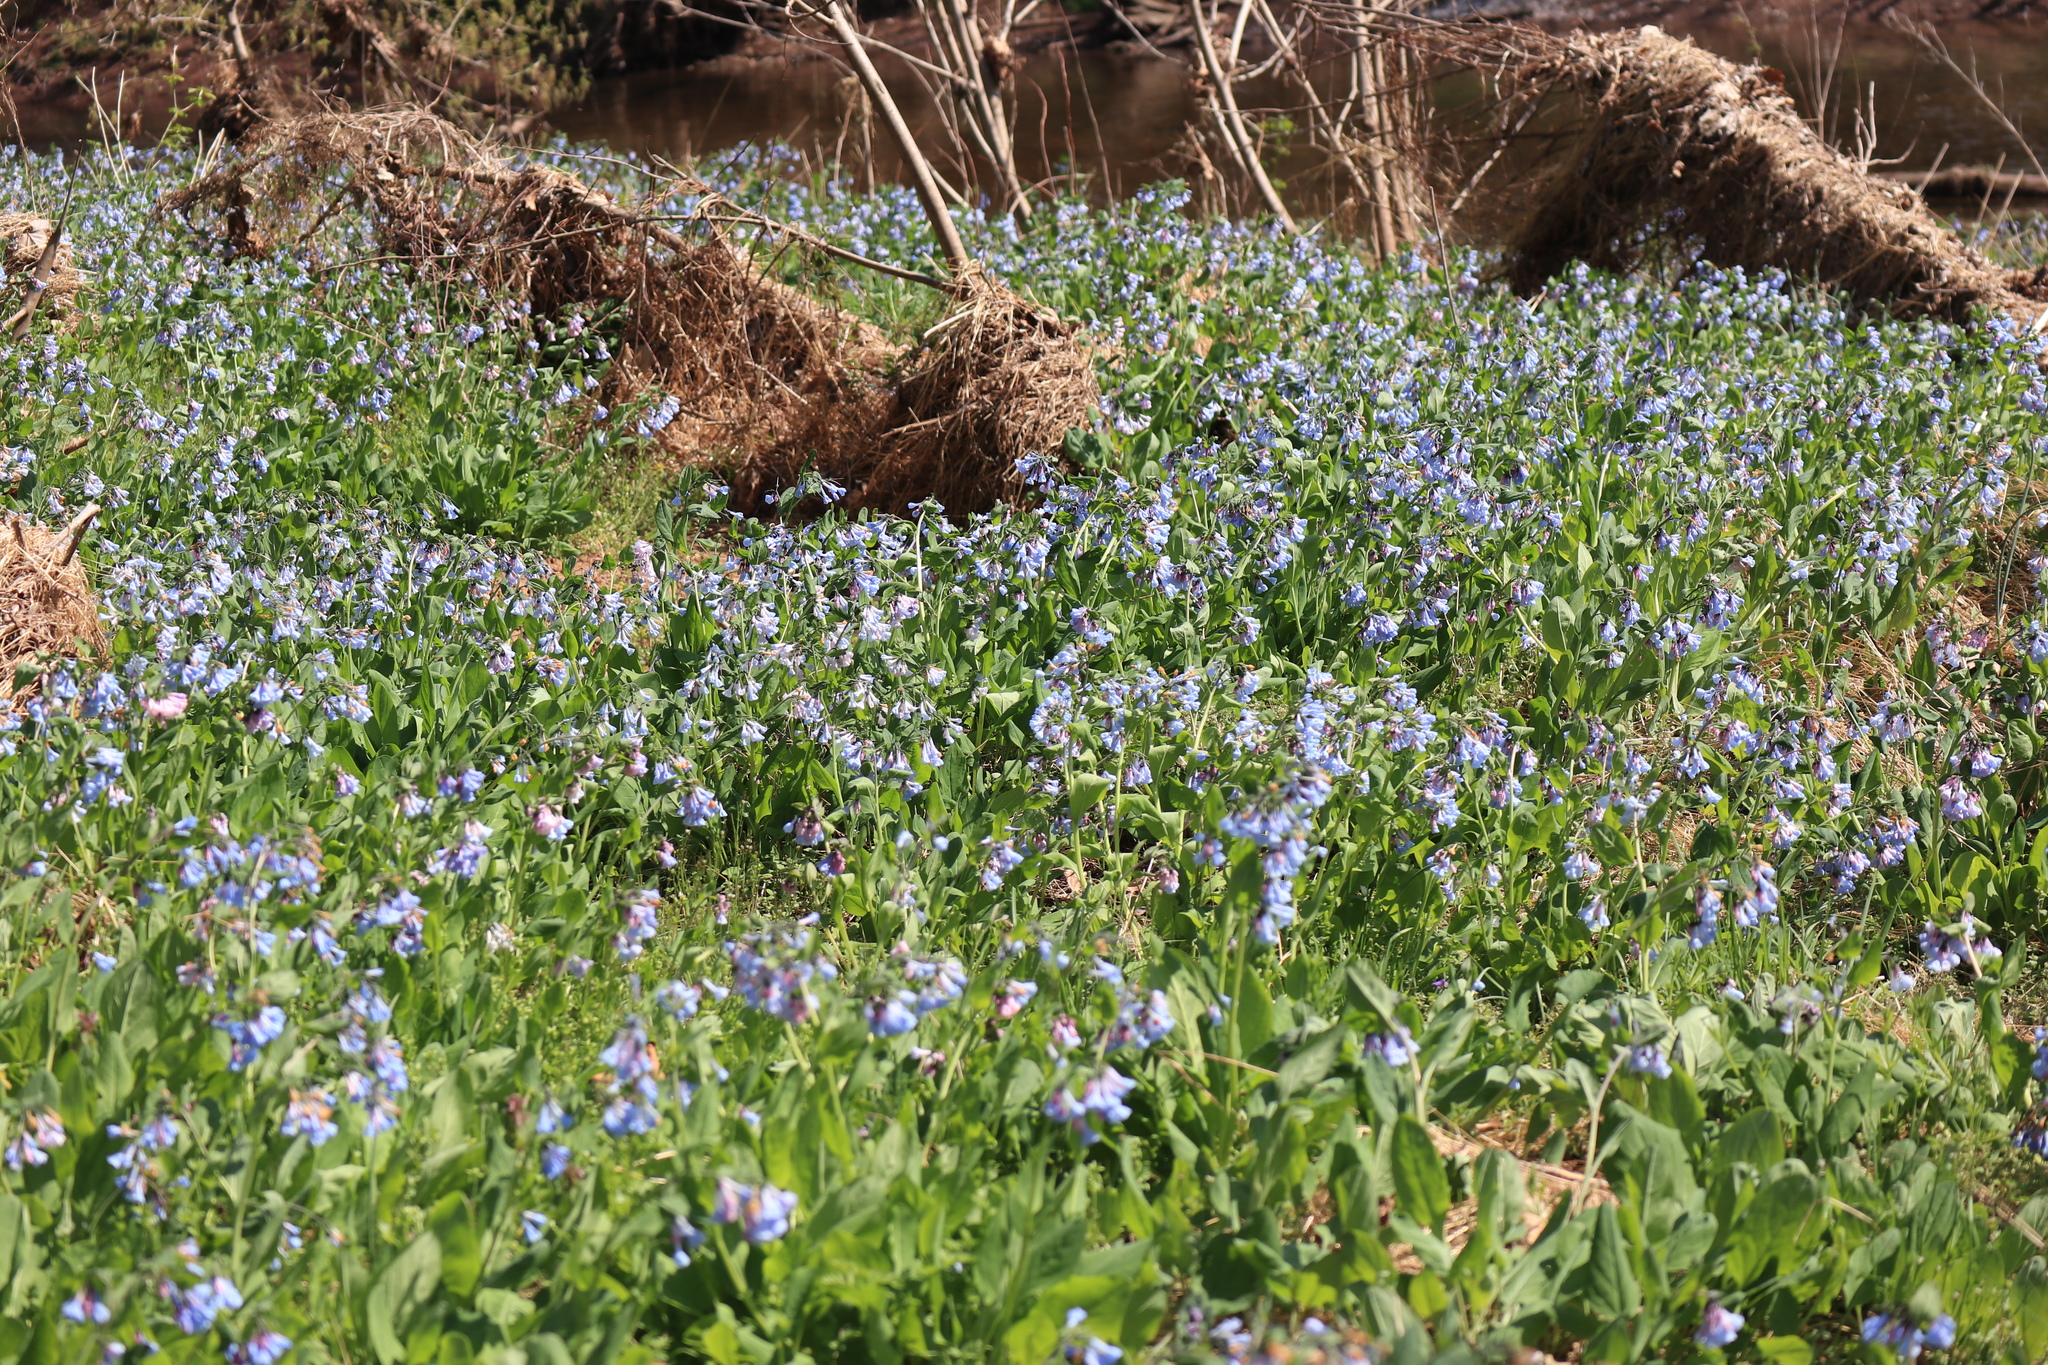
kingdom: Plantae
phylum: Tracheophyta
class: Magnoliopsida
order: Boraginales
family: Boraginaceae
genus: Mertensia
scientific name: Mertensia virginica
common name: Virginia bluebells
